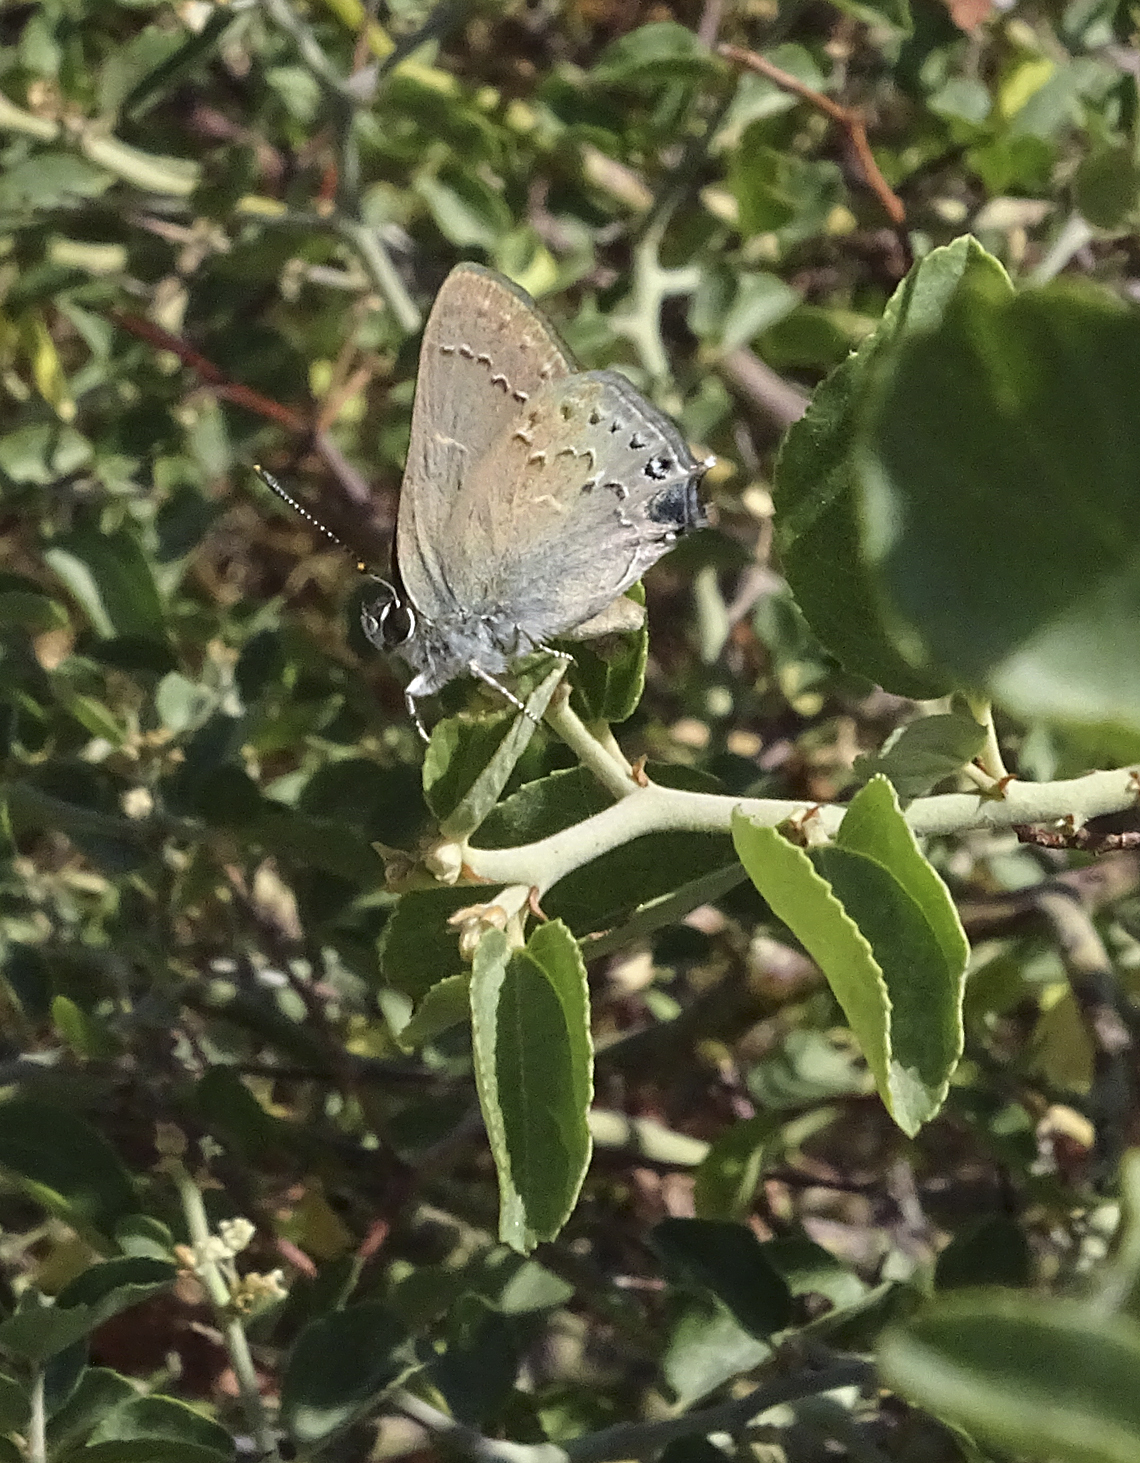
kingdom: Animalia
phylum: Arthropoda
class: Insecta
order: Lepidoptera
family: Lycaenidae
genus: Strymon
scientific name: Strymon saepium
